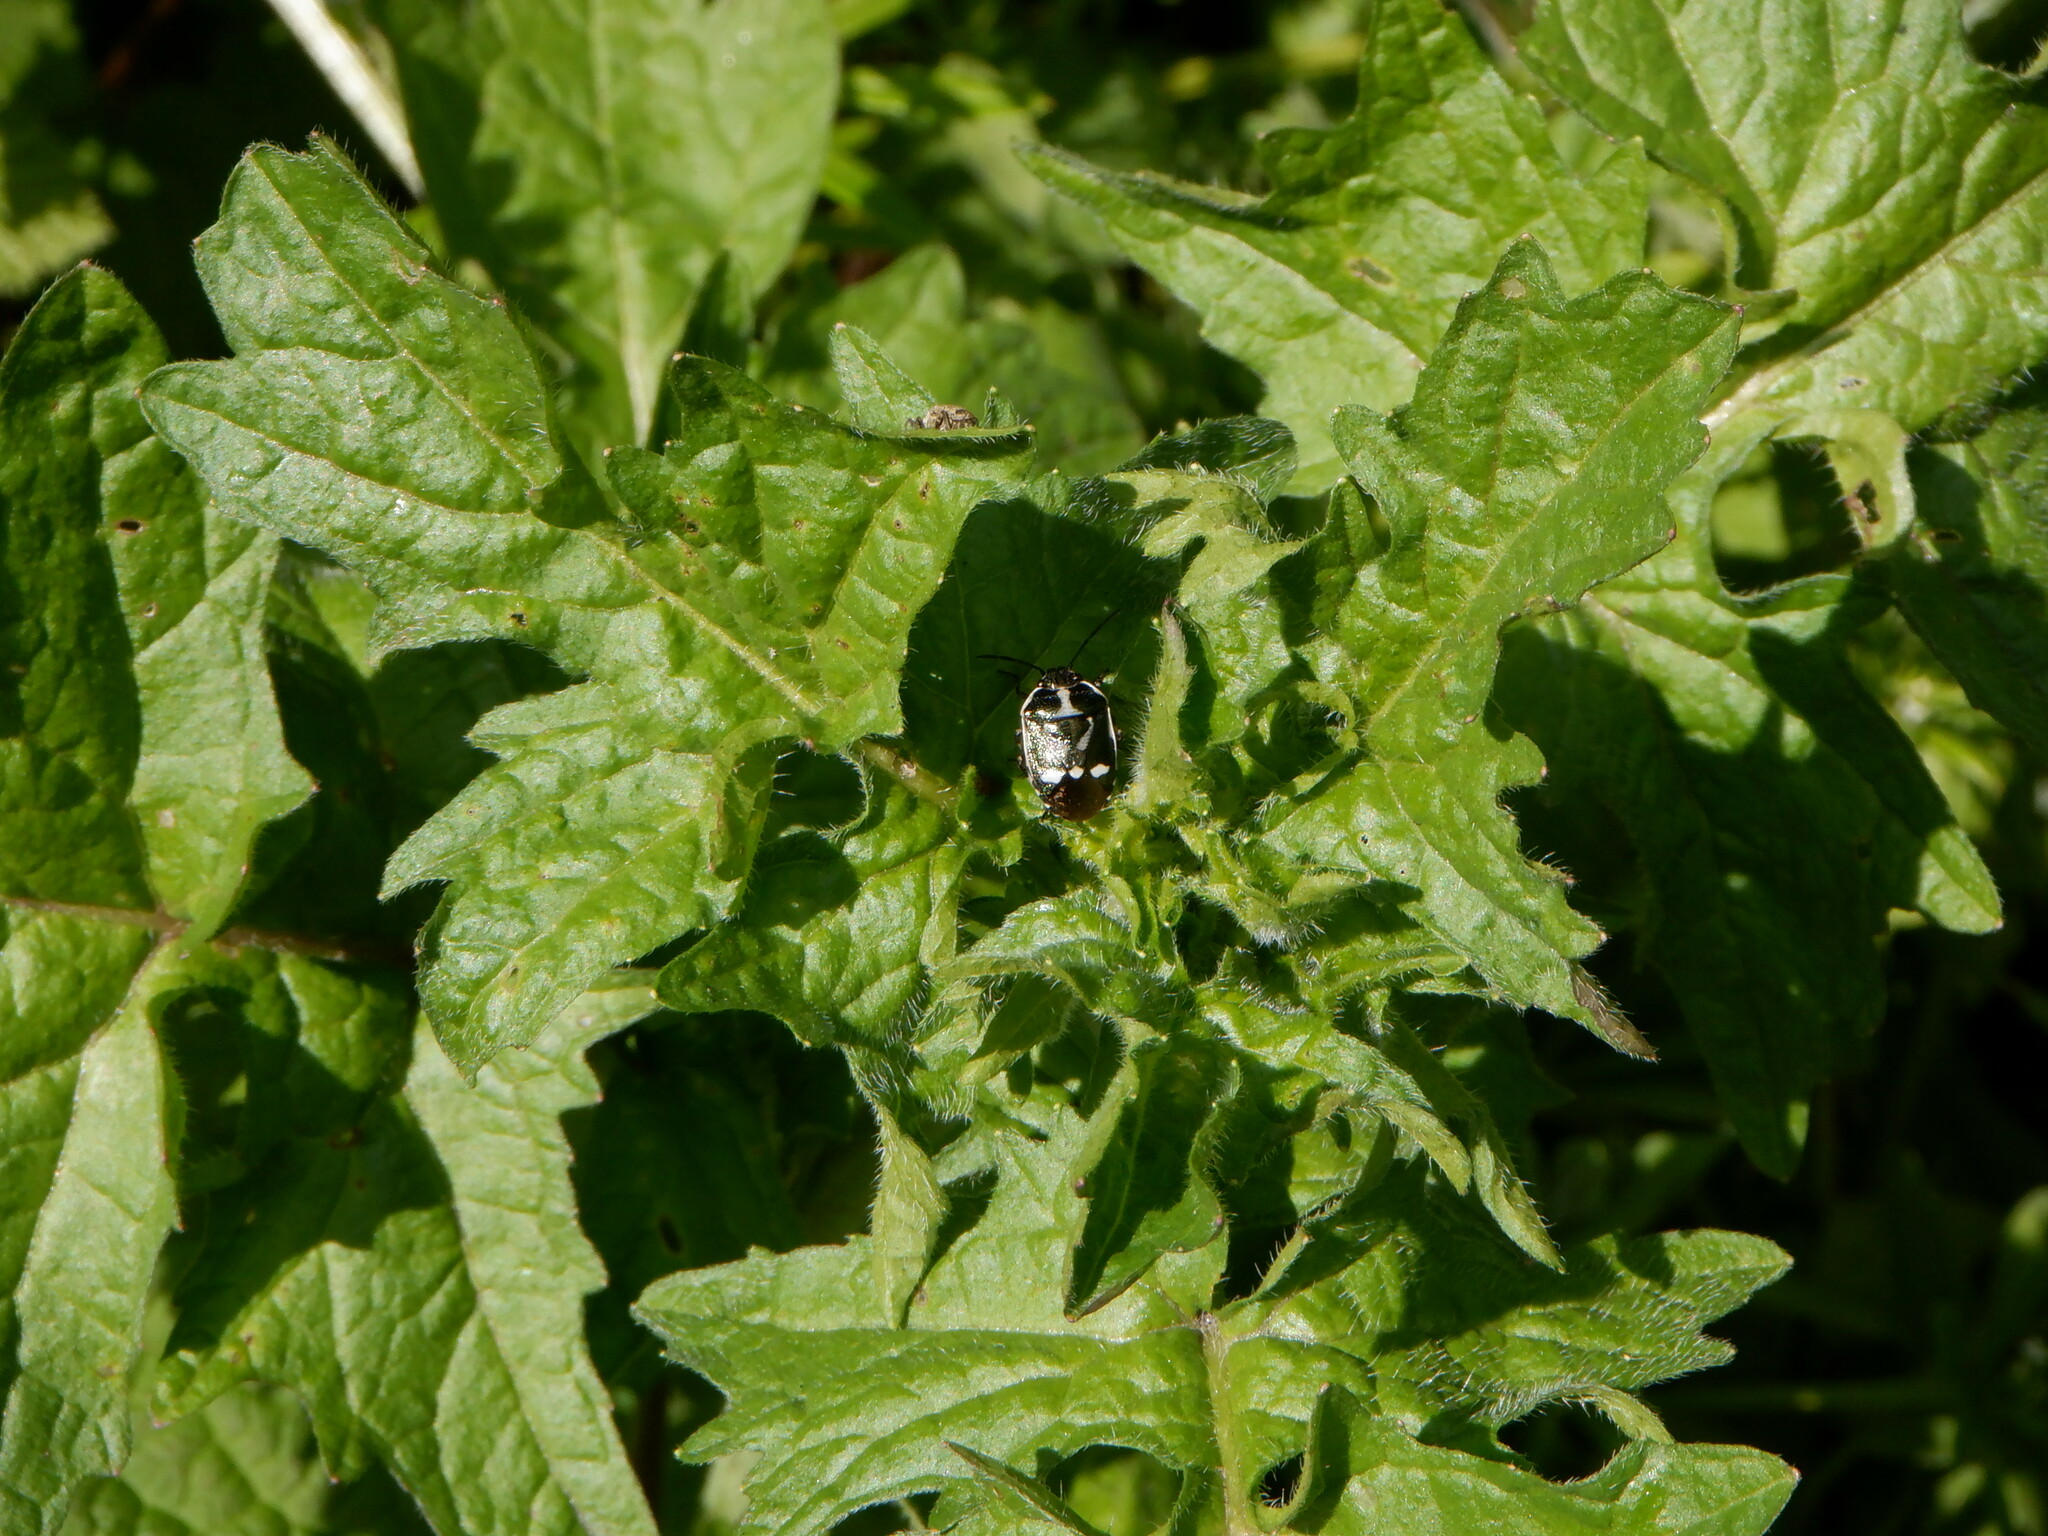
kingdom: Animalia
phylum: Arthropoda
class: Insecta
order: Hemiptera
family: Pentatomidae
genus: Eurydema
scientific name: Eurydema oleracea
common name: Cabbage bug
